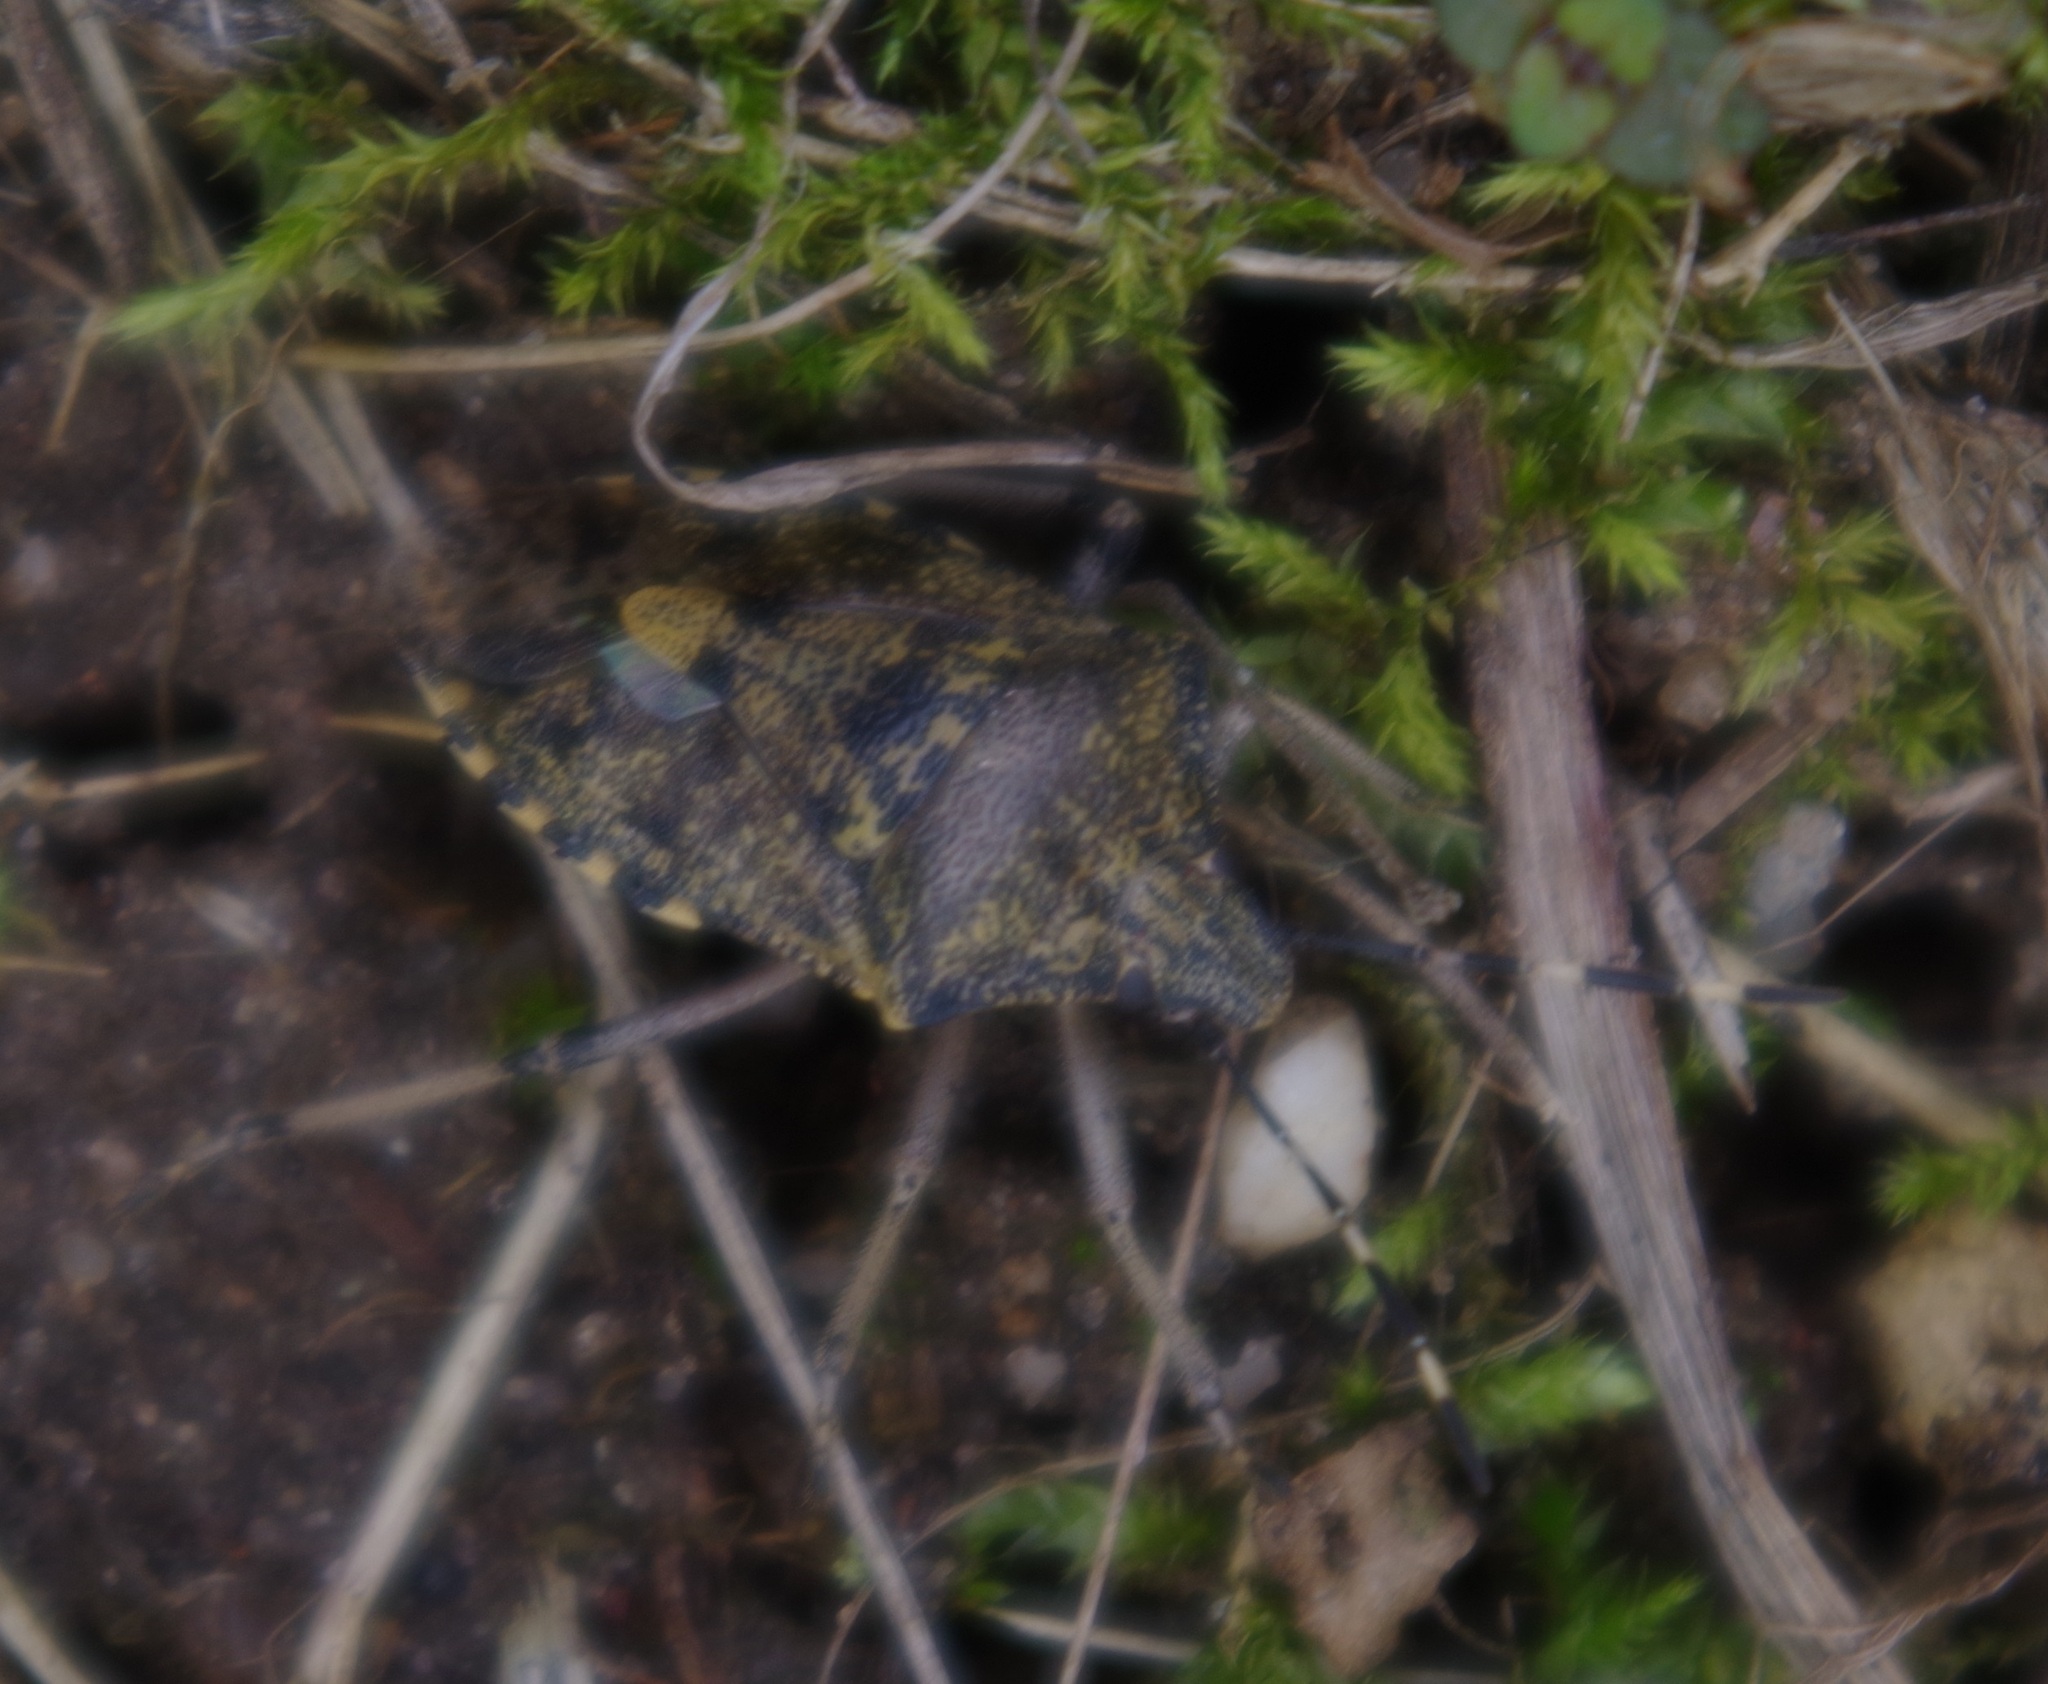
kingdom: Animalia
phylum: Arthropoda
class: Insecta
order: Hemiptera
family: Pentatomidae
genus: Rhaphigaster
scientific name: Rhaphigaster nebulosa
